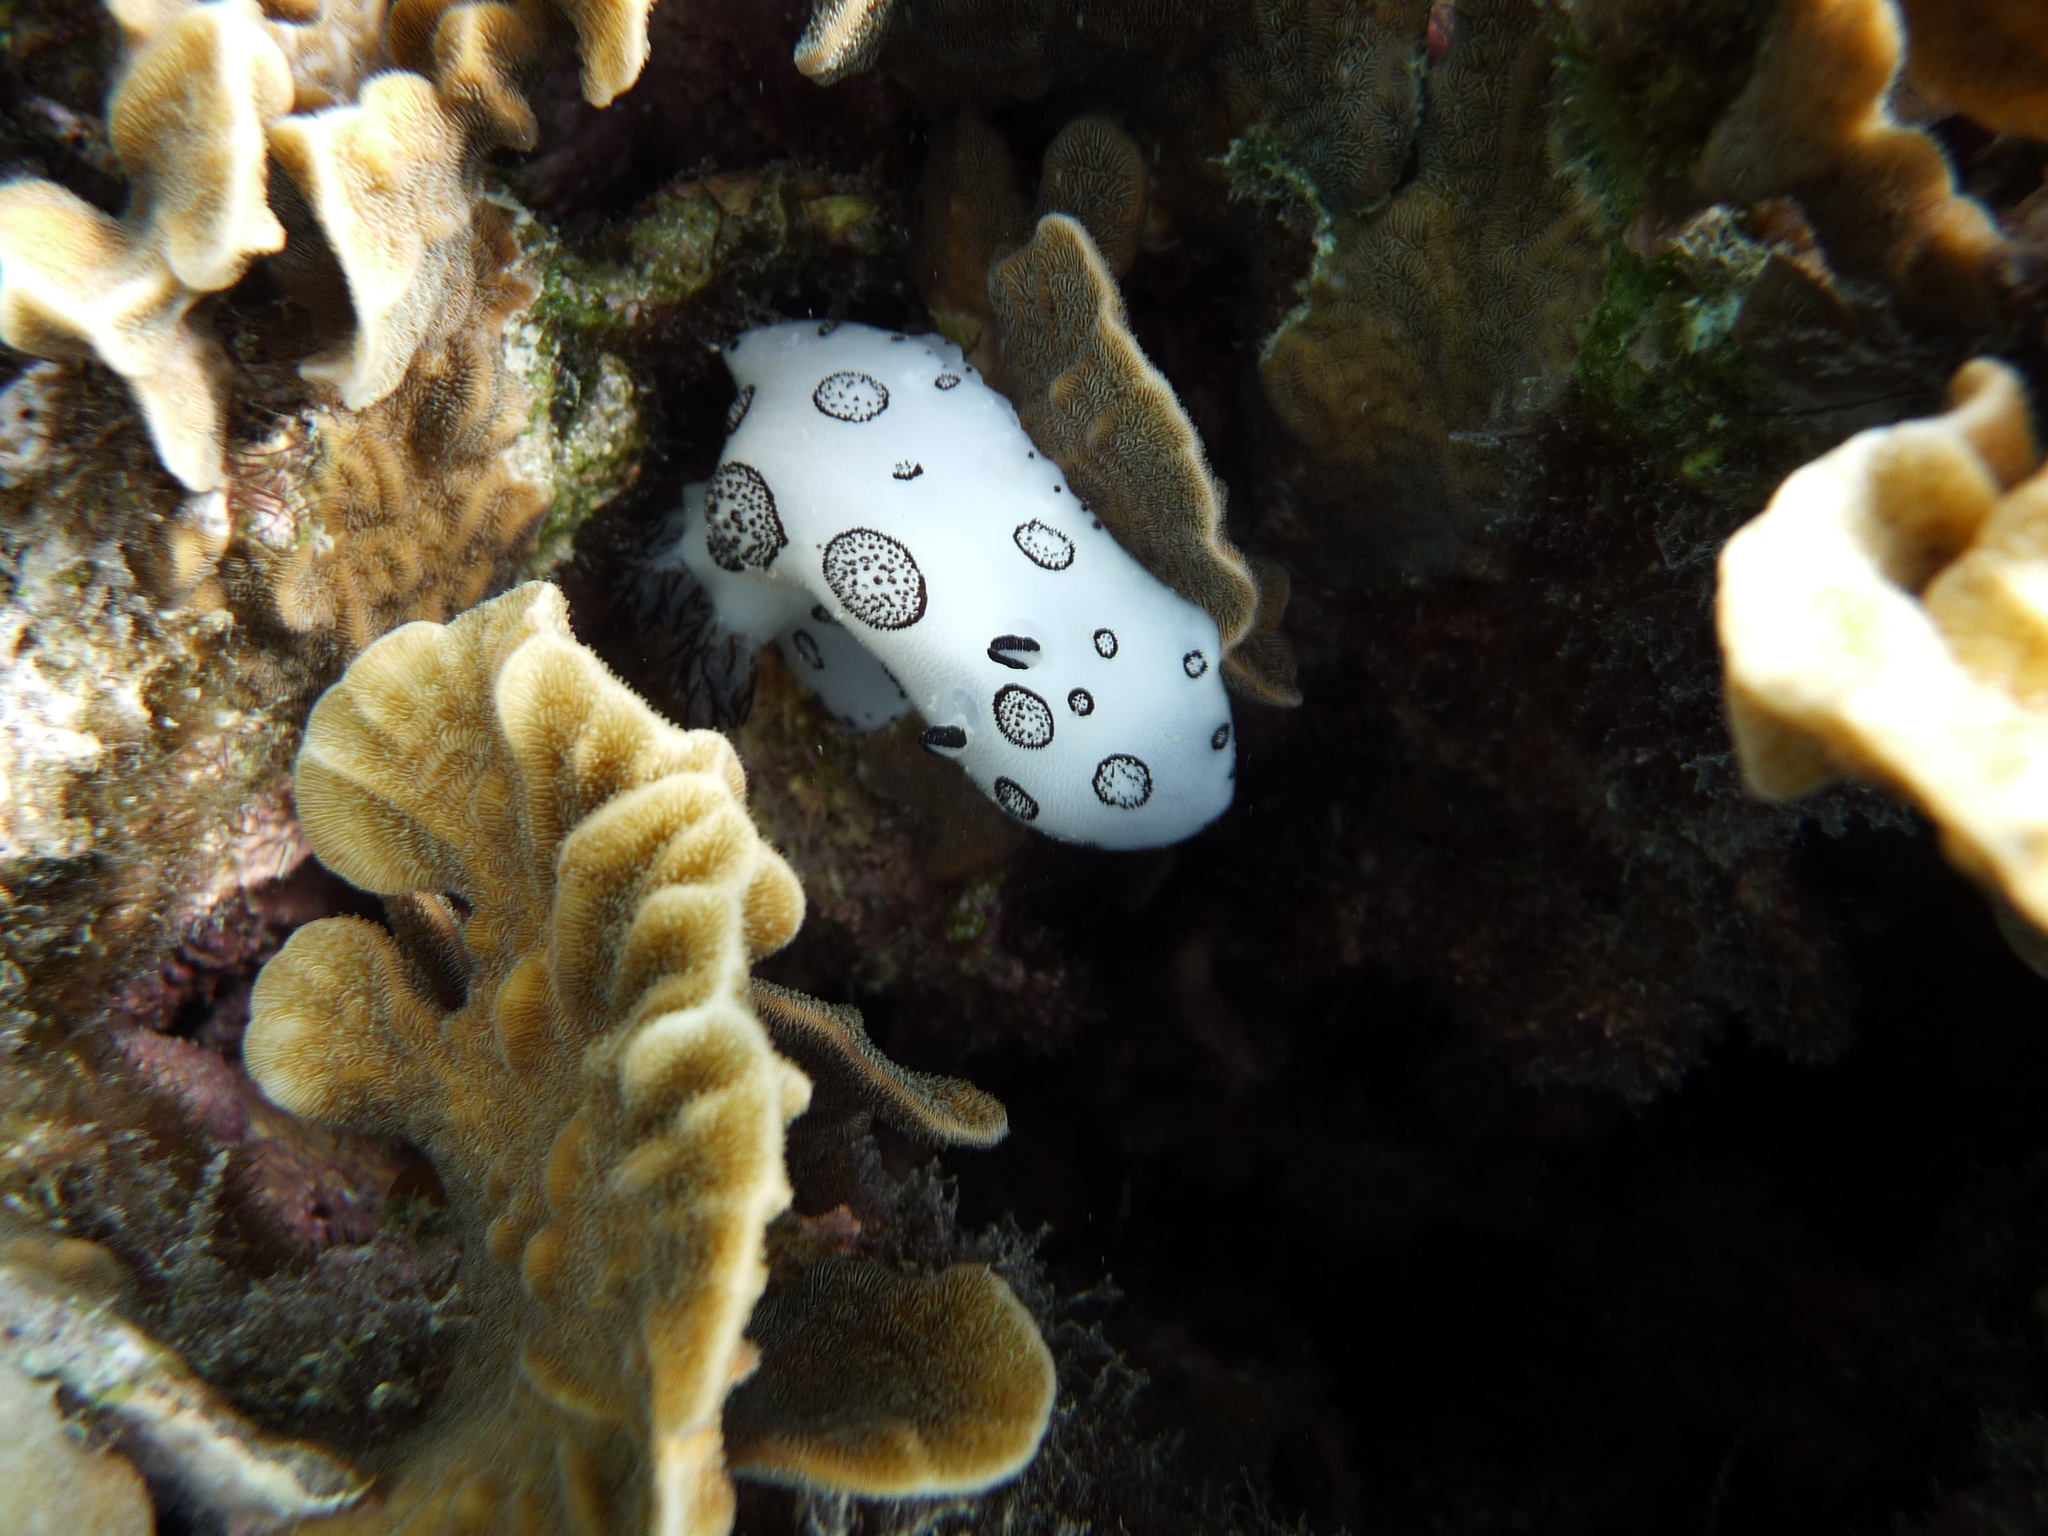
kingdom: Animalia
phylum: Mollusca
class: Gastropoda
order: Nudibranchia
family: Discodorididae
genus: Jorunna
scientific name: Jorunna funebris
